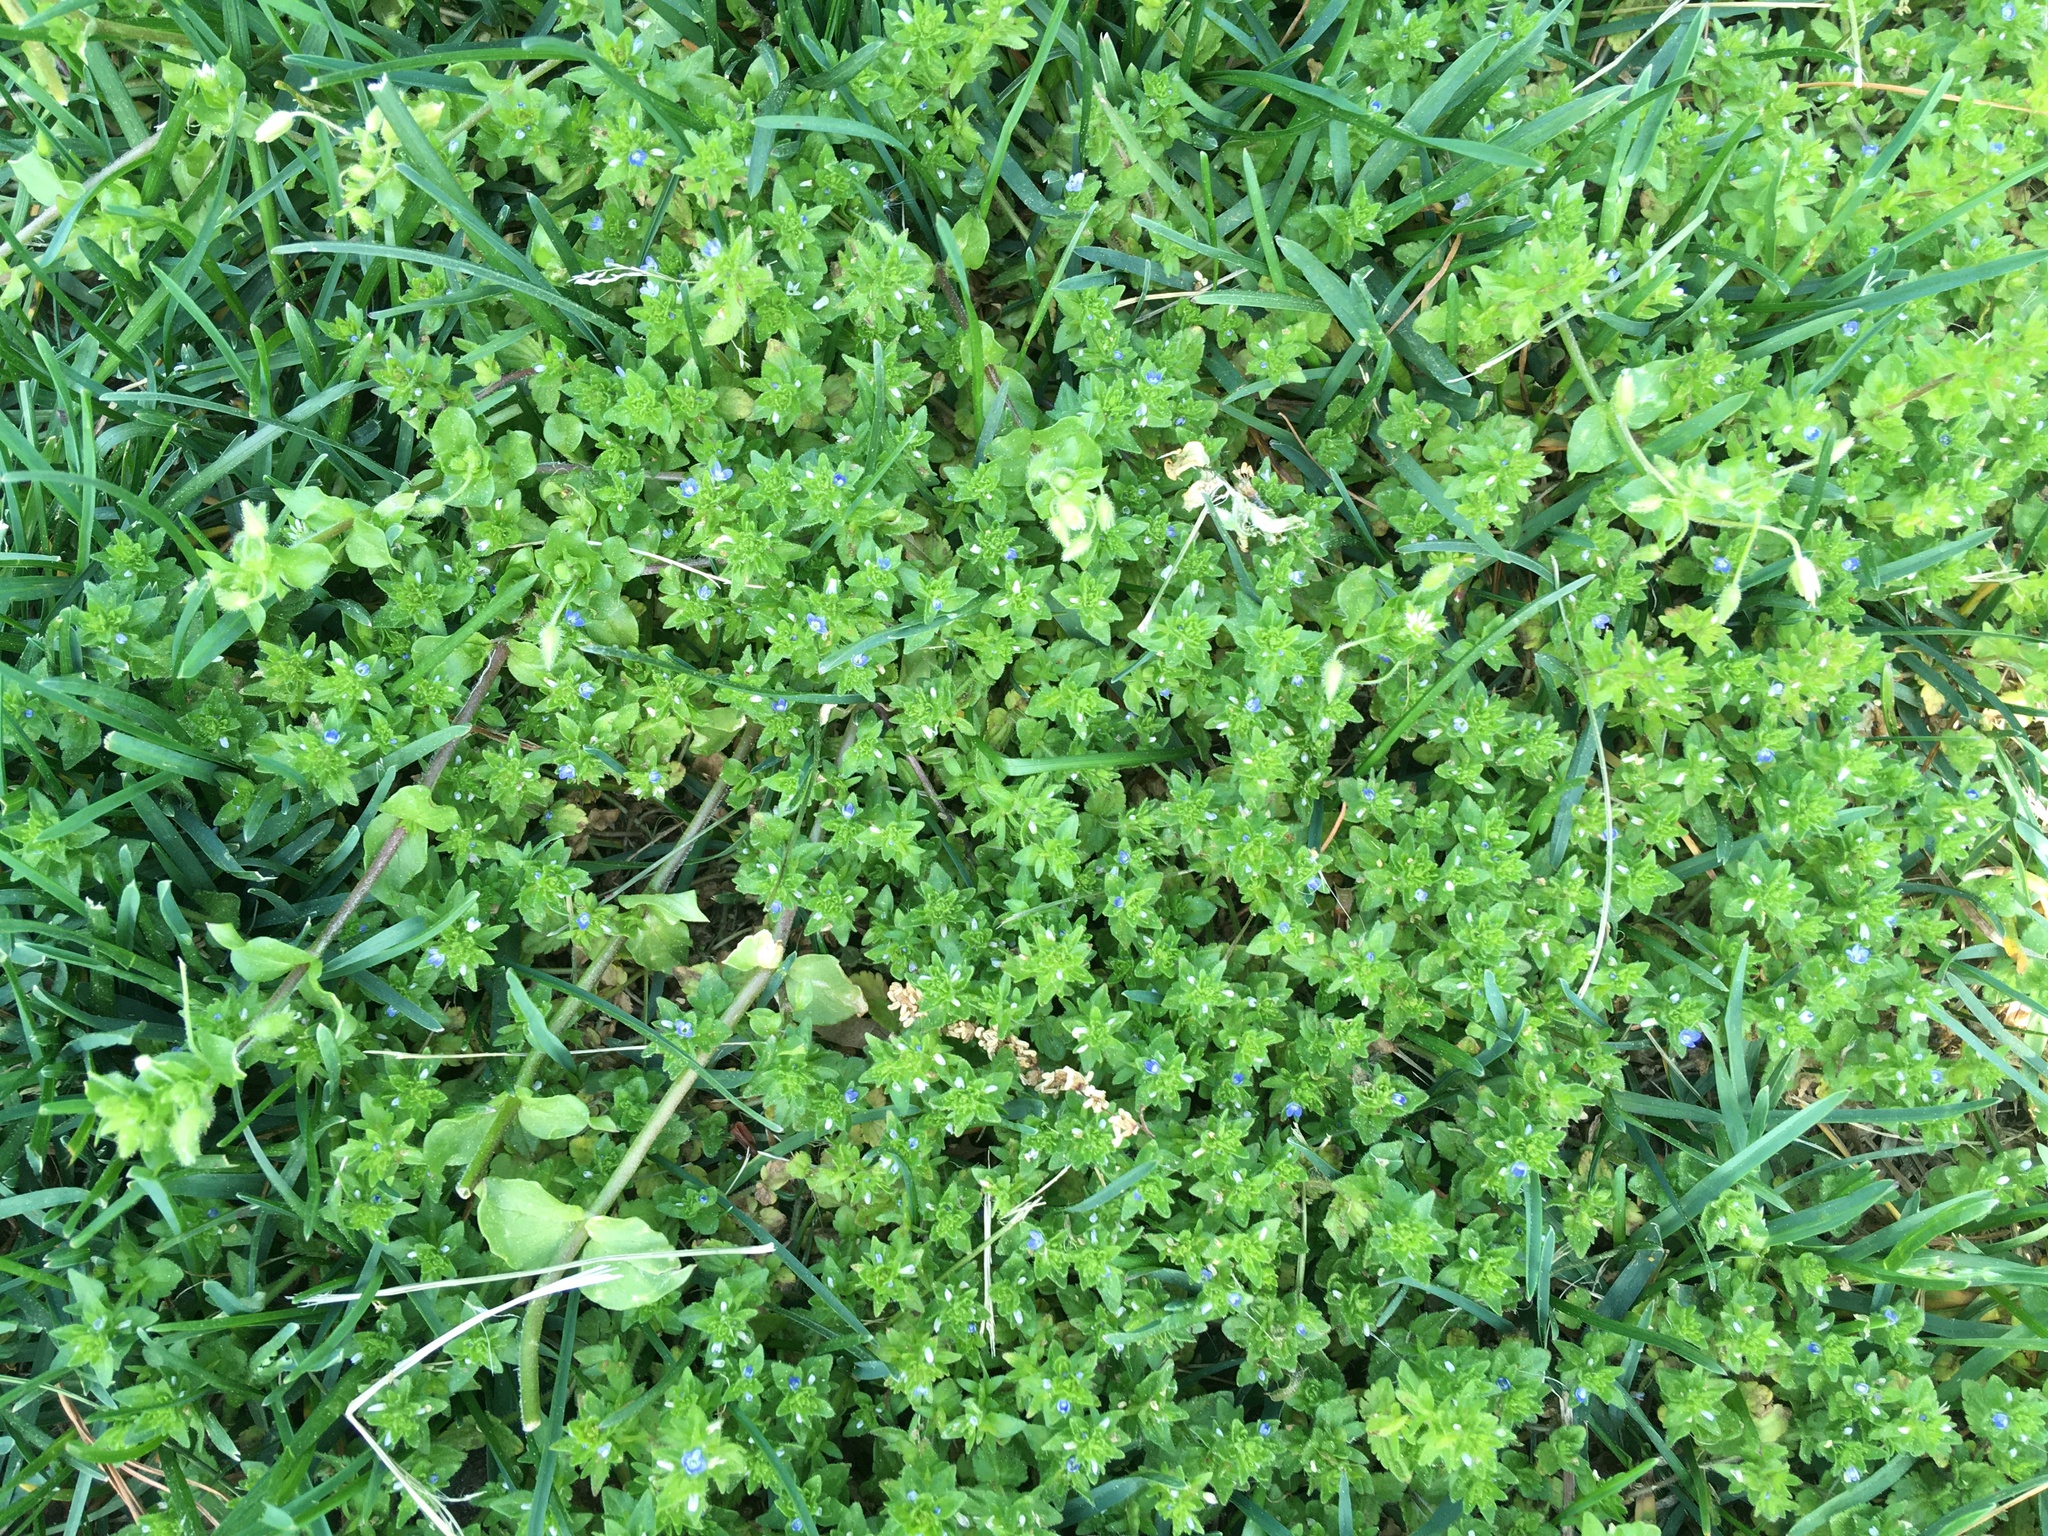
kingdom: Plantae
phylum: Tracheophyta
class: Magnoliopsida
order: Lamiales
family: Plantaginaceae
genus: Veronica
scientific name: Veronica arvensis
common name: Corn speedwell
